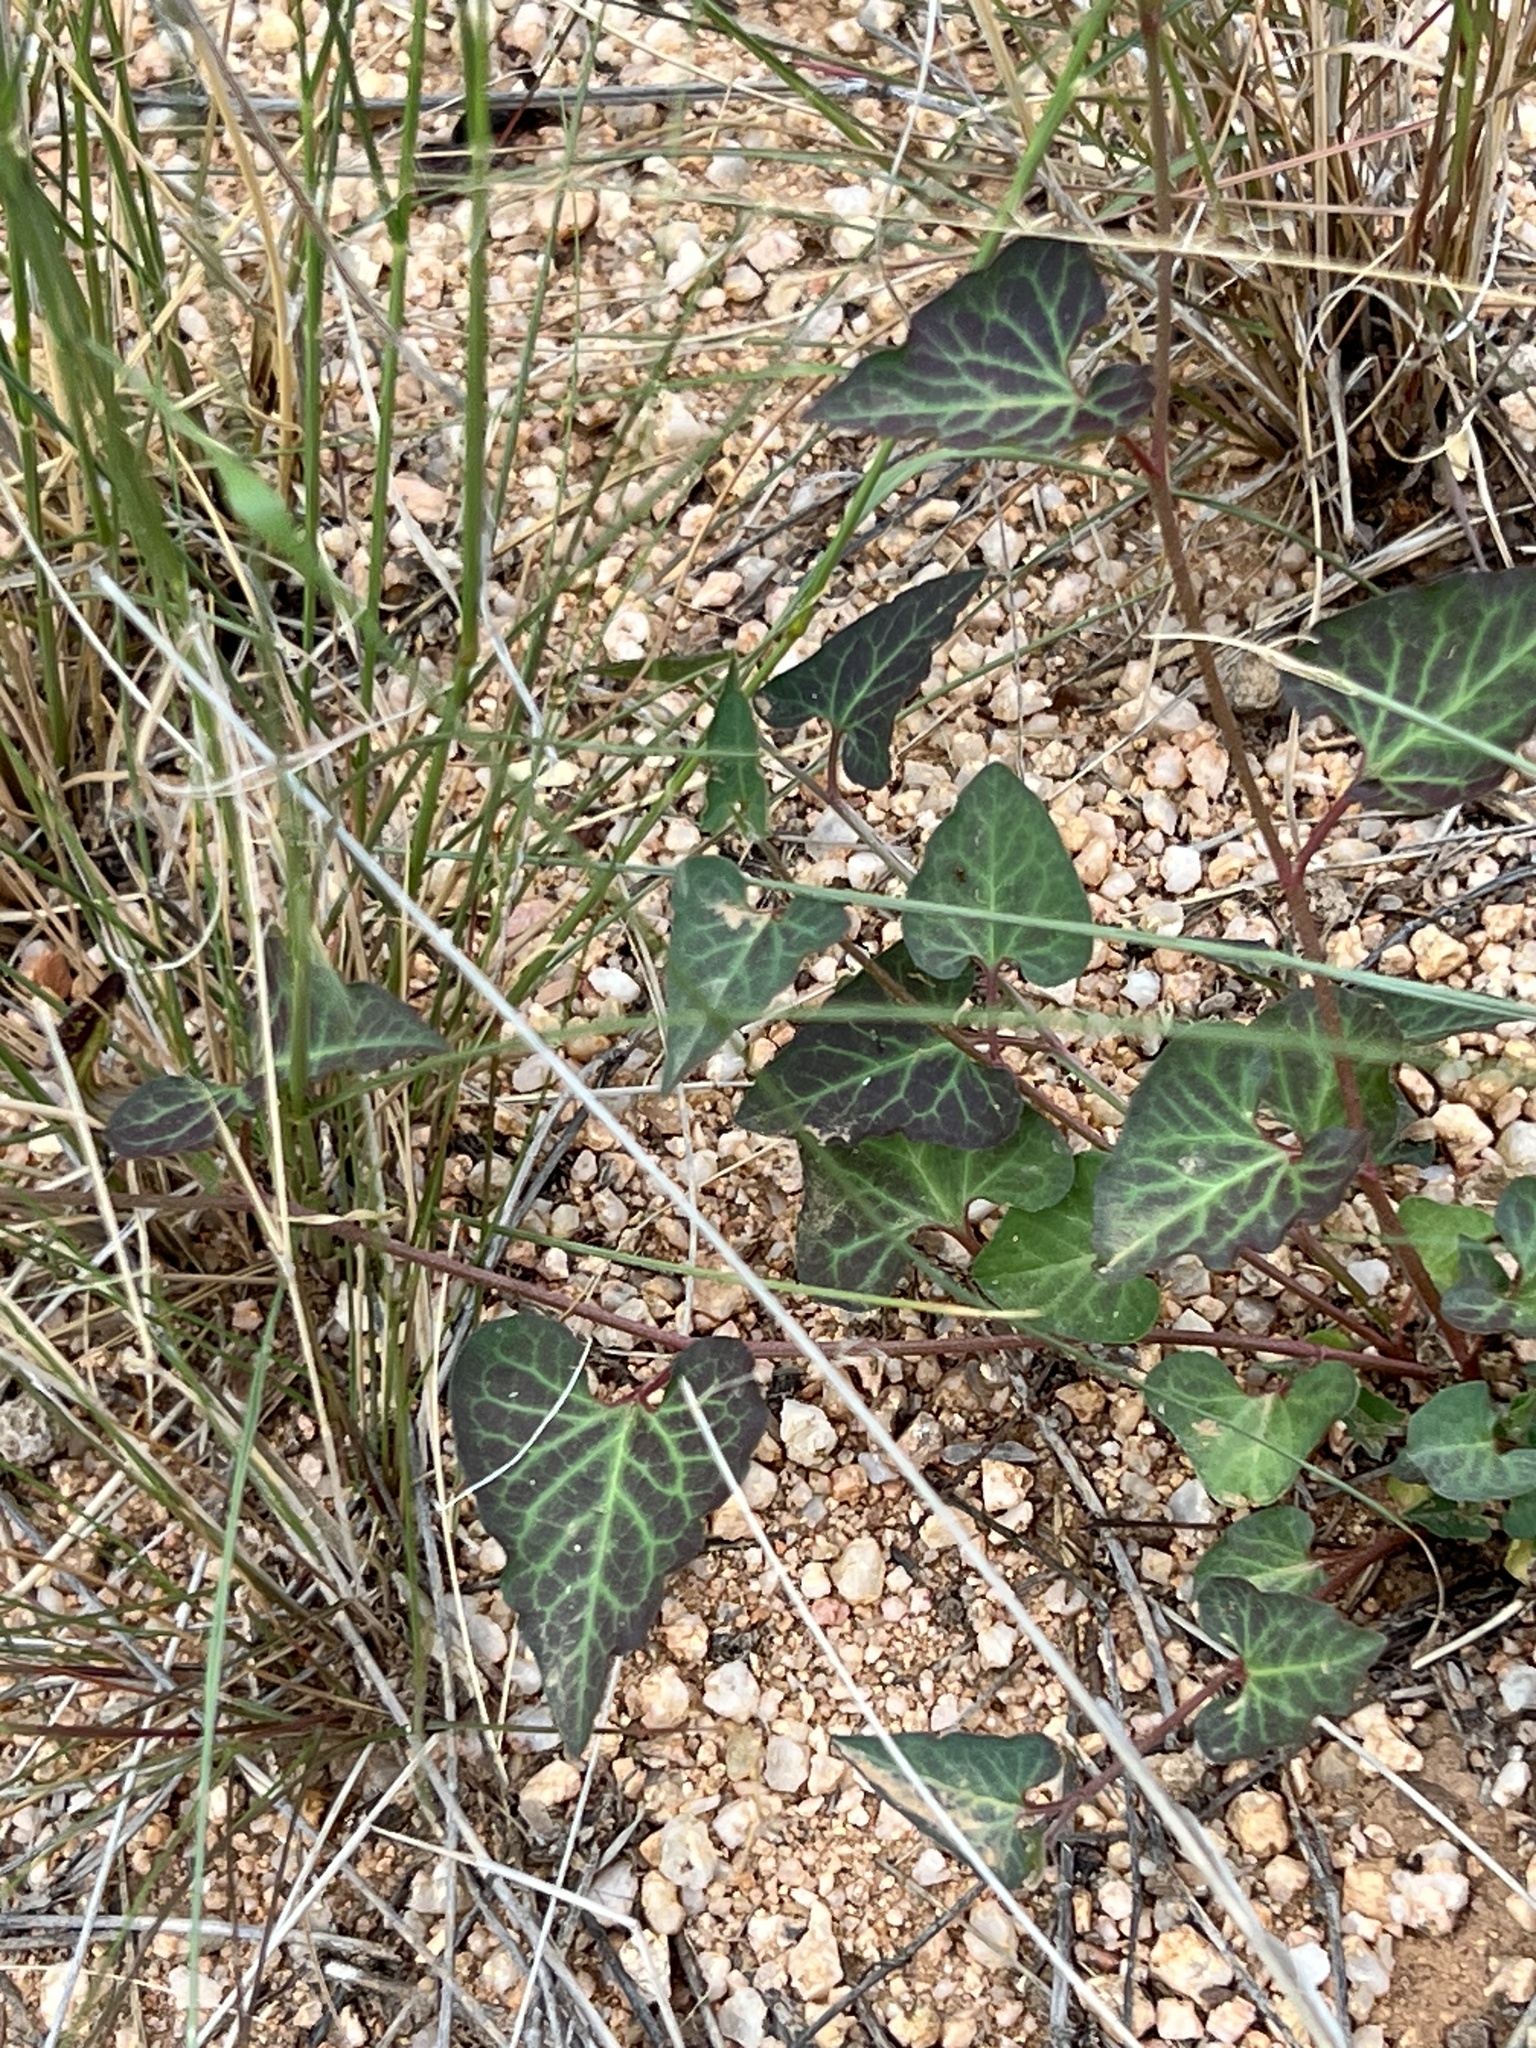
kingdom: Plantae
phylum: Tracheophyta
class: Magnoliopsida
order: Piperales
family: Aristolochiaceae
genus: Aristolochia
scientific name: Aristolochia watsonii
